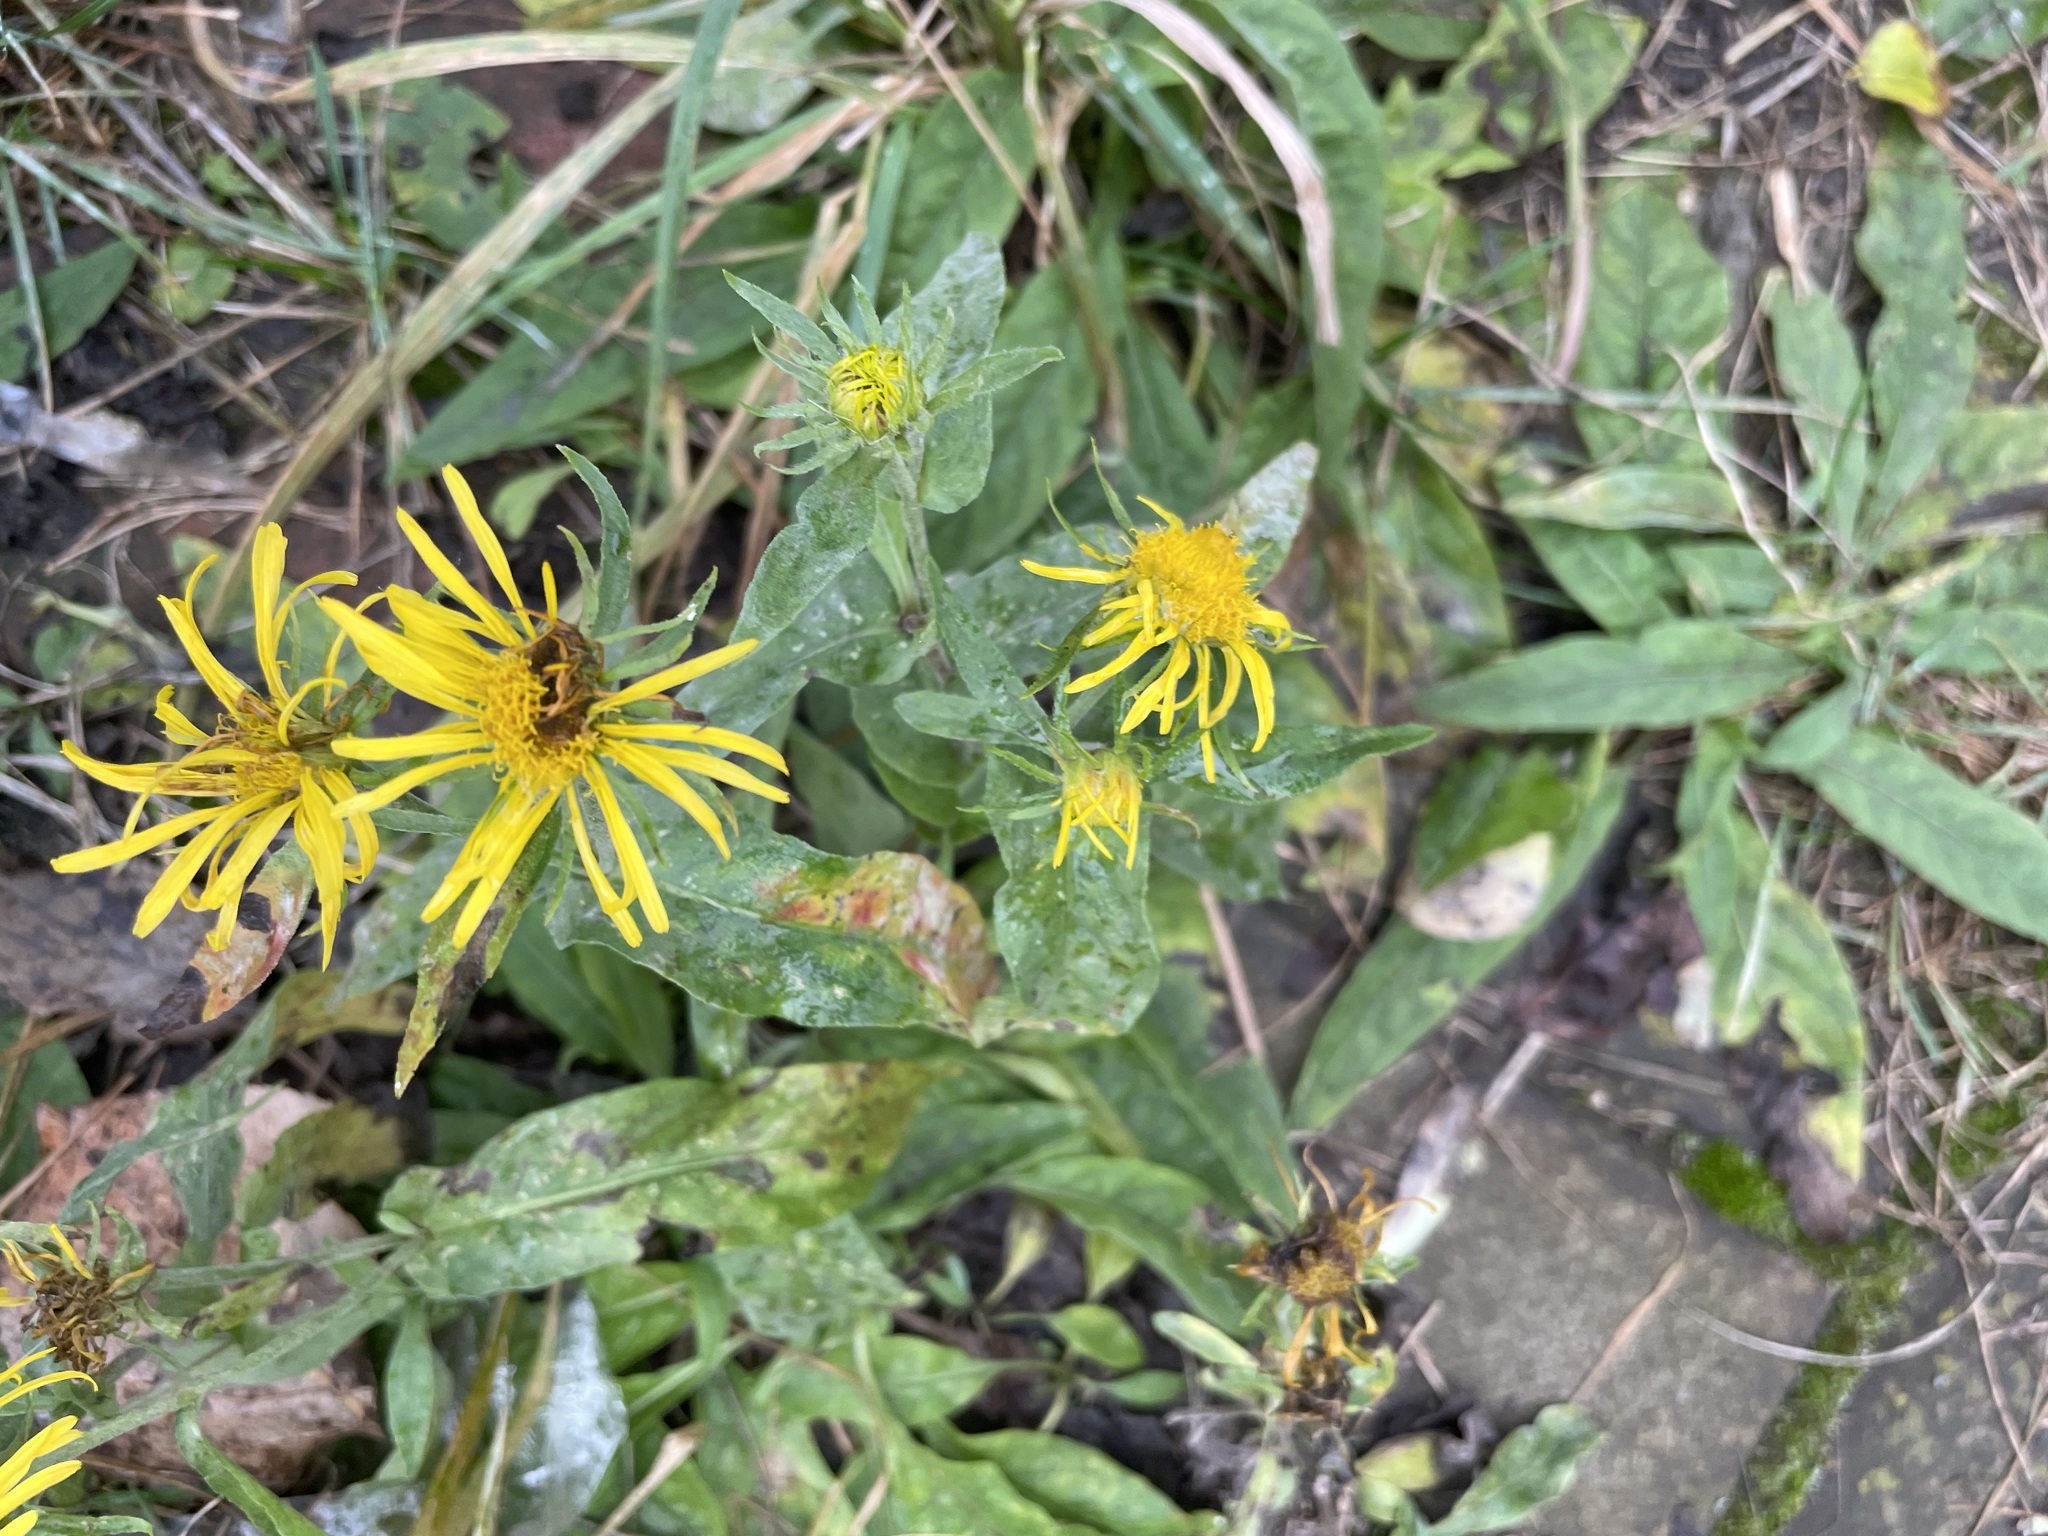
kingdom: Plantae
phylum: Tracheophyta
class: Magnoliopsida
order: Asterales
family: Asteraceae
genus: Pentanema
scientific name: Pentanema britannicum
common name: British elecampane
